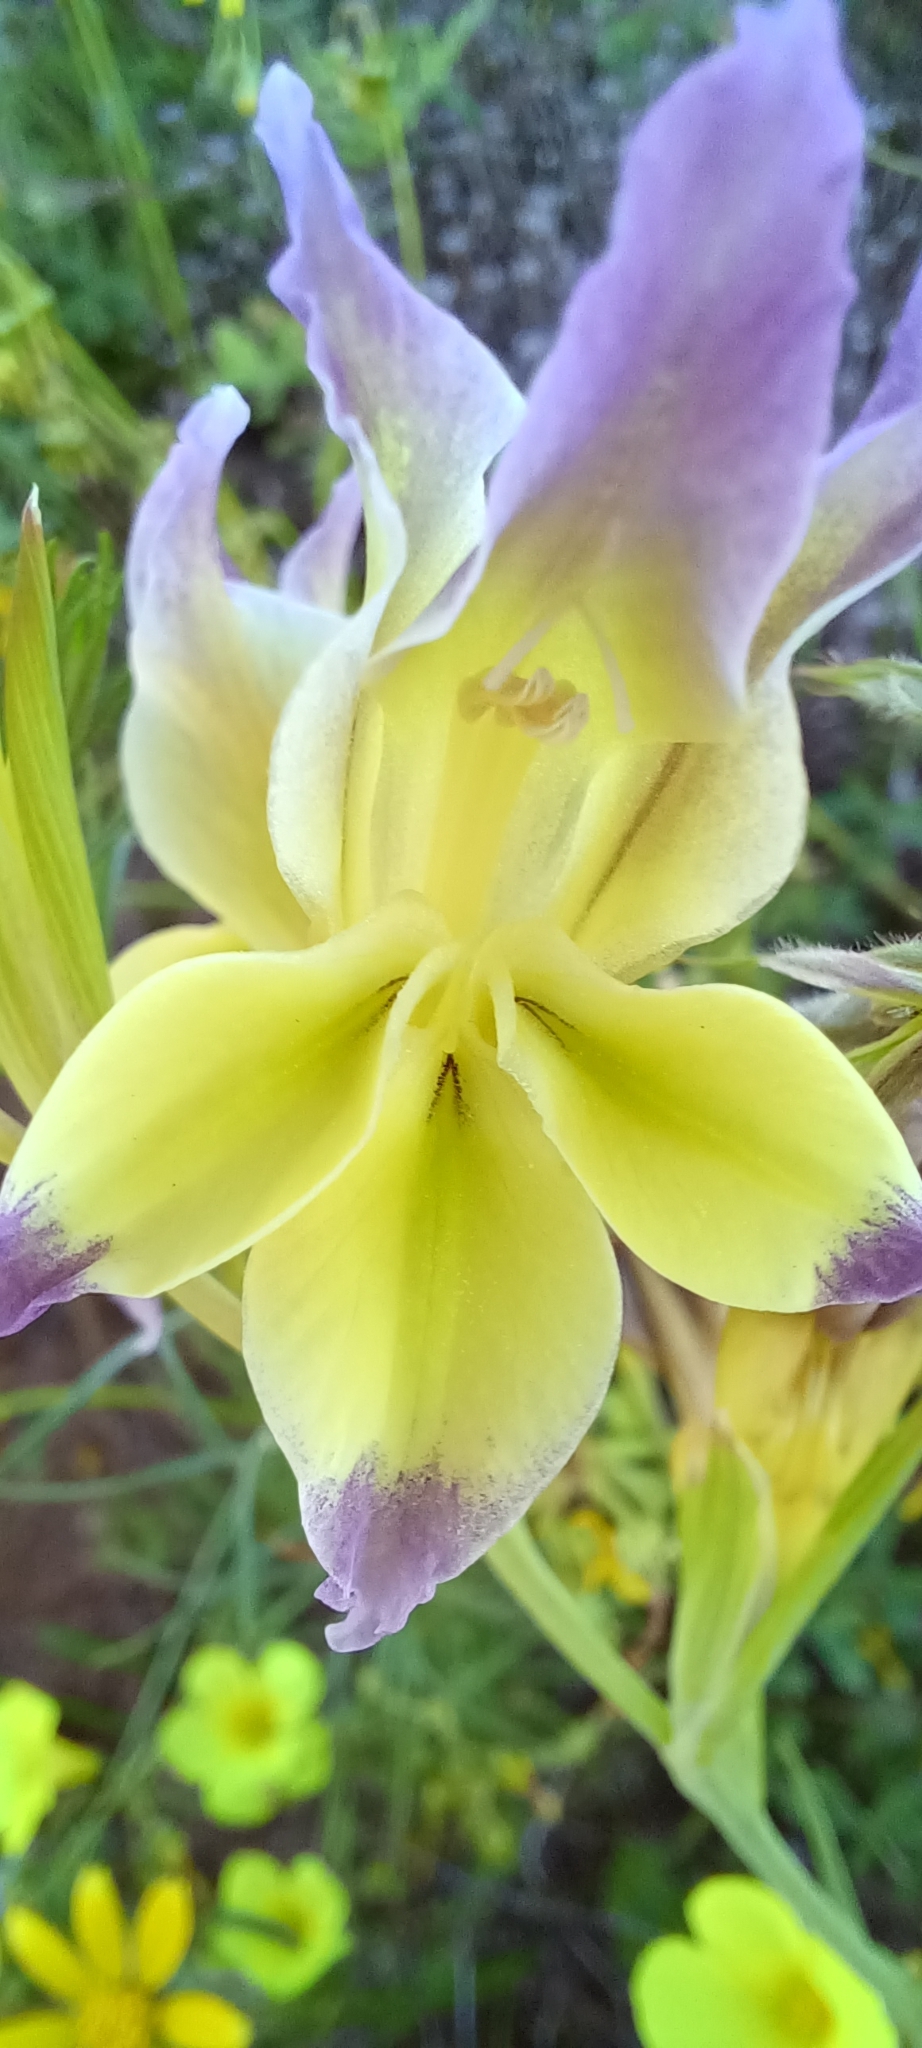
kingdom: Plantae
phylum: Tracheophyta
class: Liliopsida
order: Asparagales
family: Iridaceae
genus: Gladiolus
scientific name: Gladiolus venustus
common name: Purple kalkoentjie
